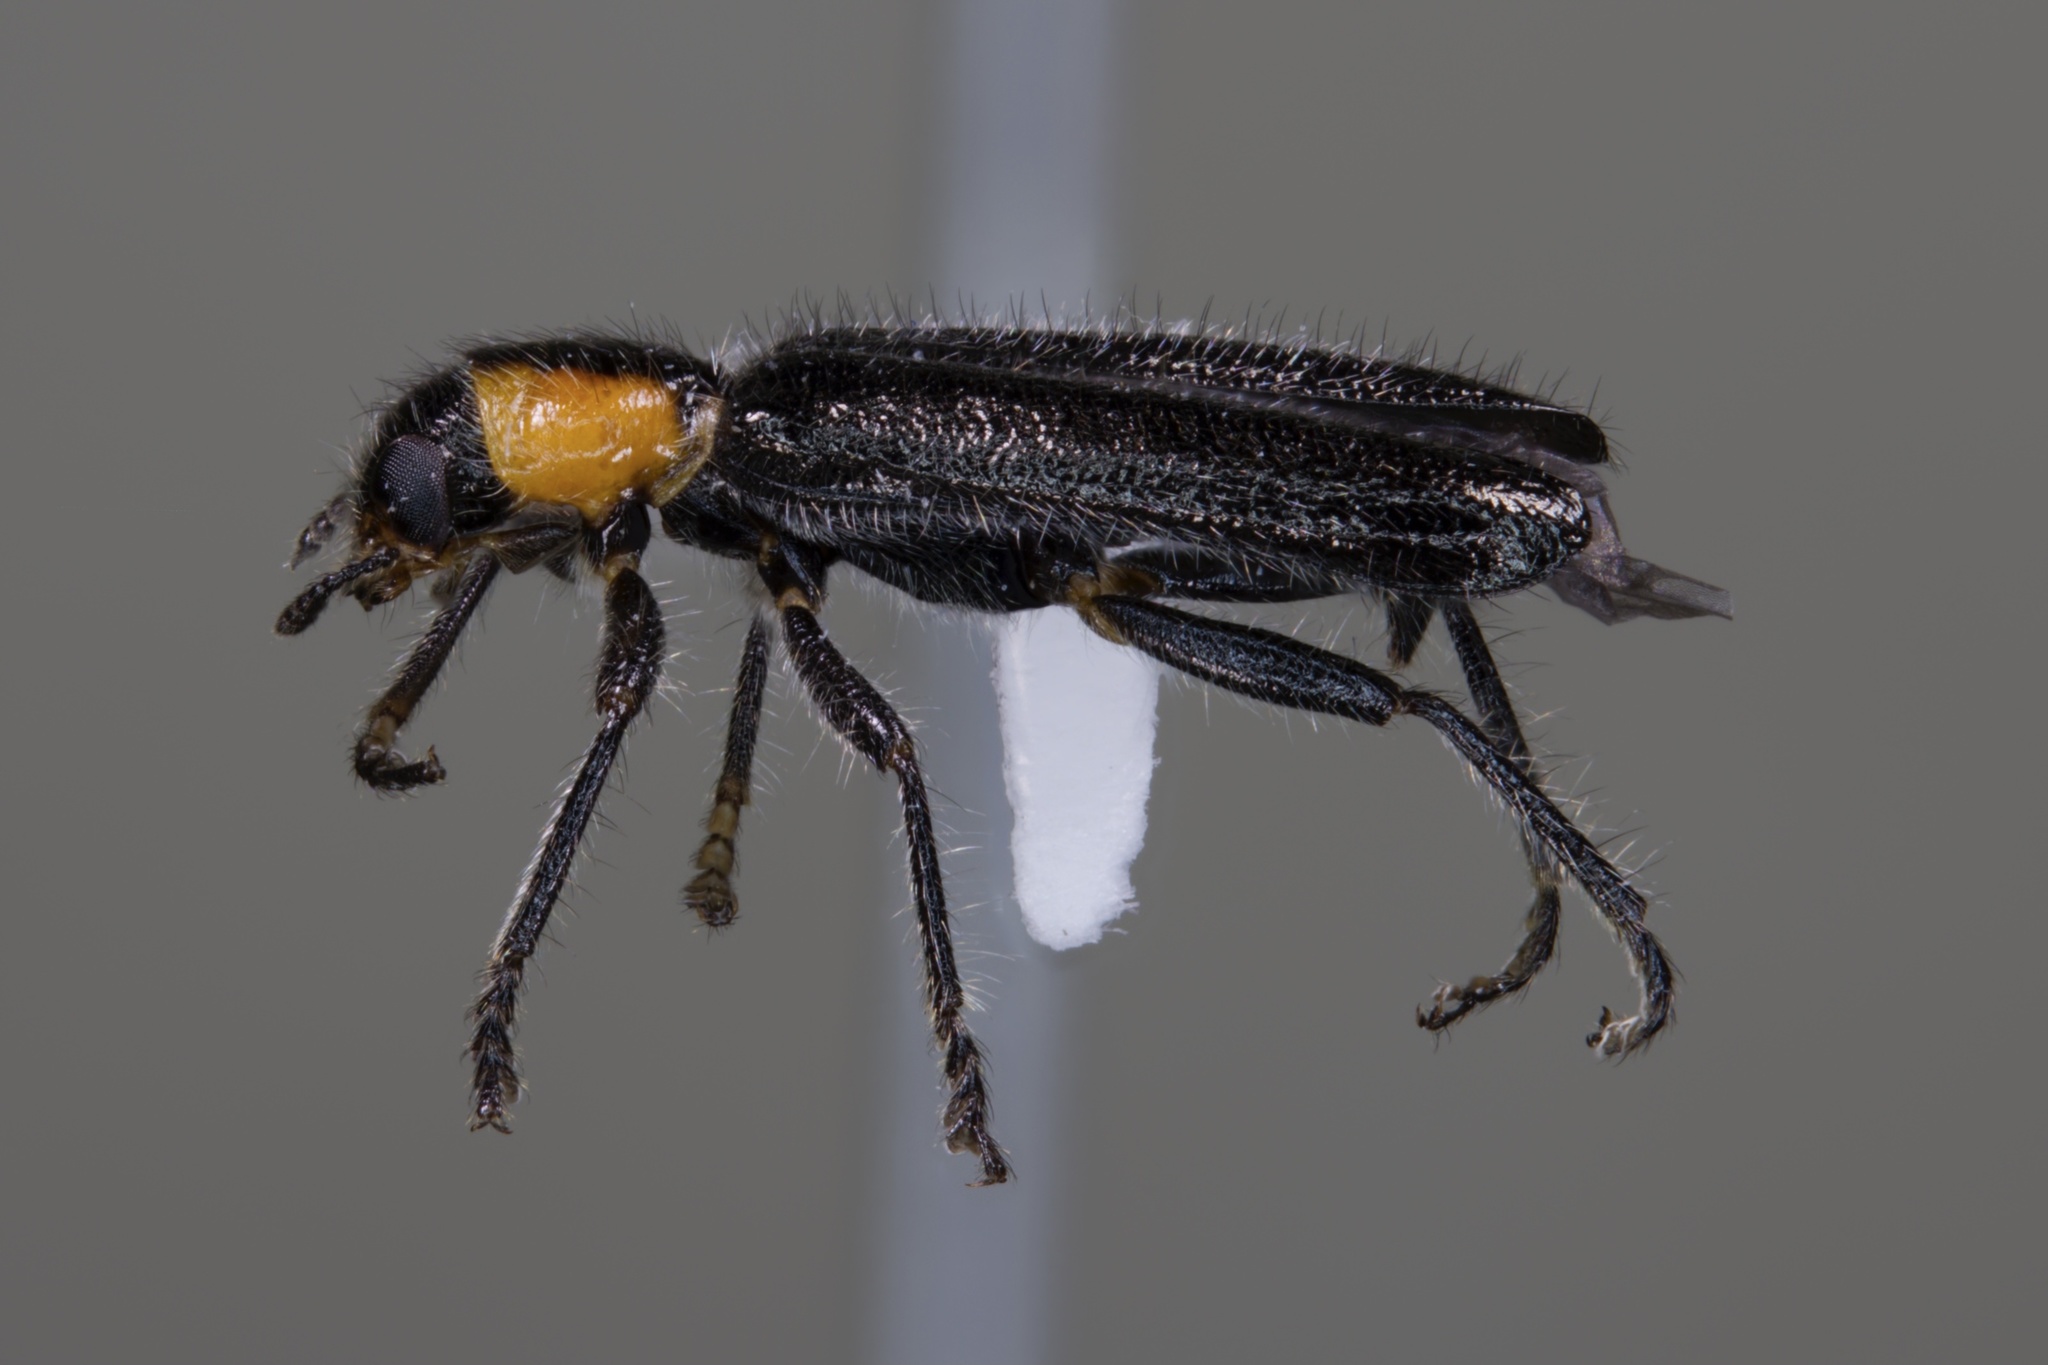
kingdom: Animalia
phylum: Arthropoda
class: Insecta
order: Coleoptera
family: Cleridae
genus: Placopterus
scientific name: Placopterus thoracicus
